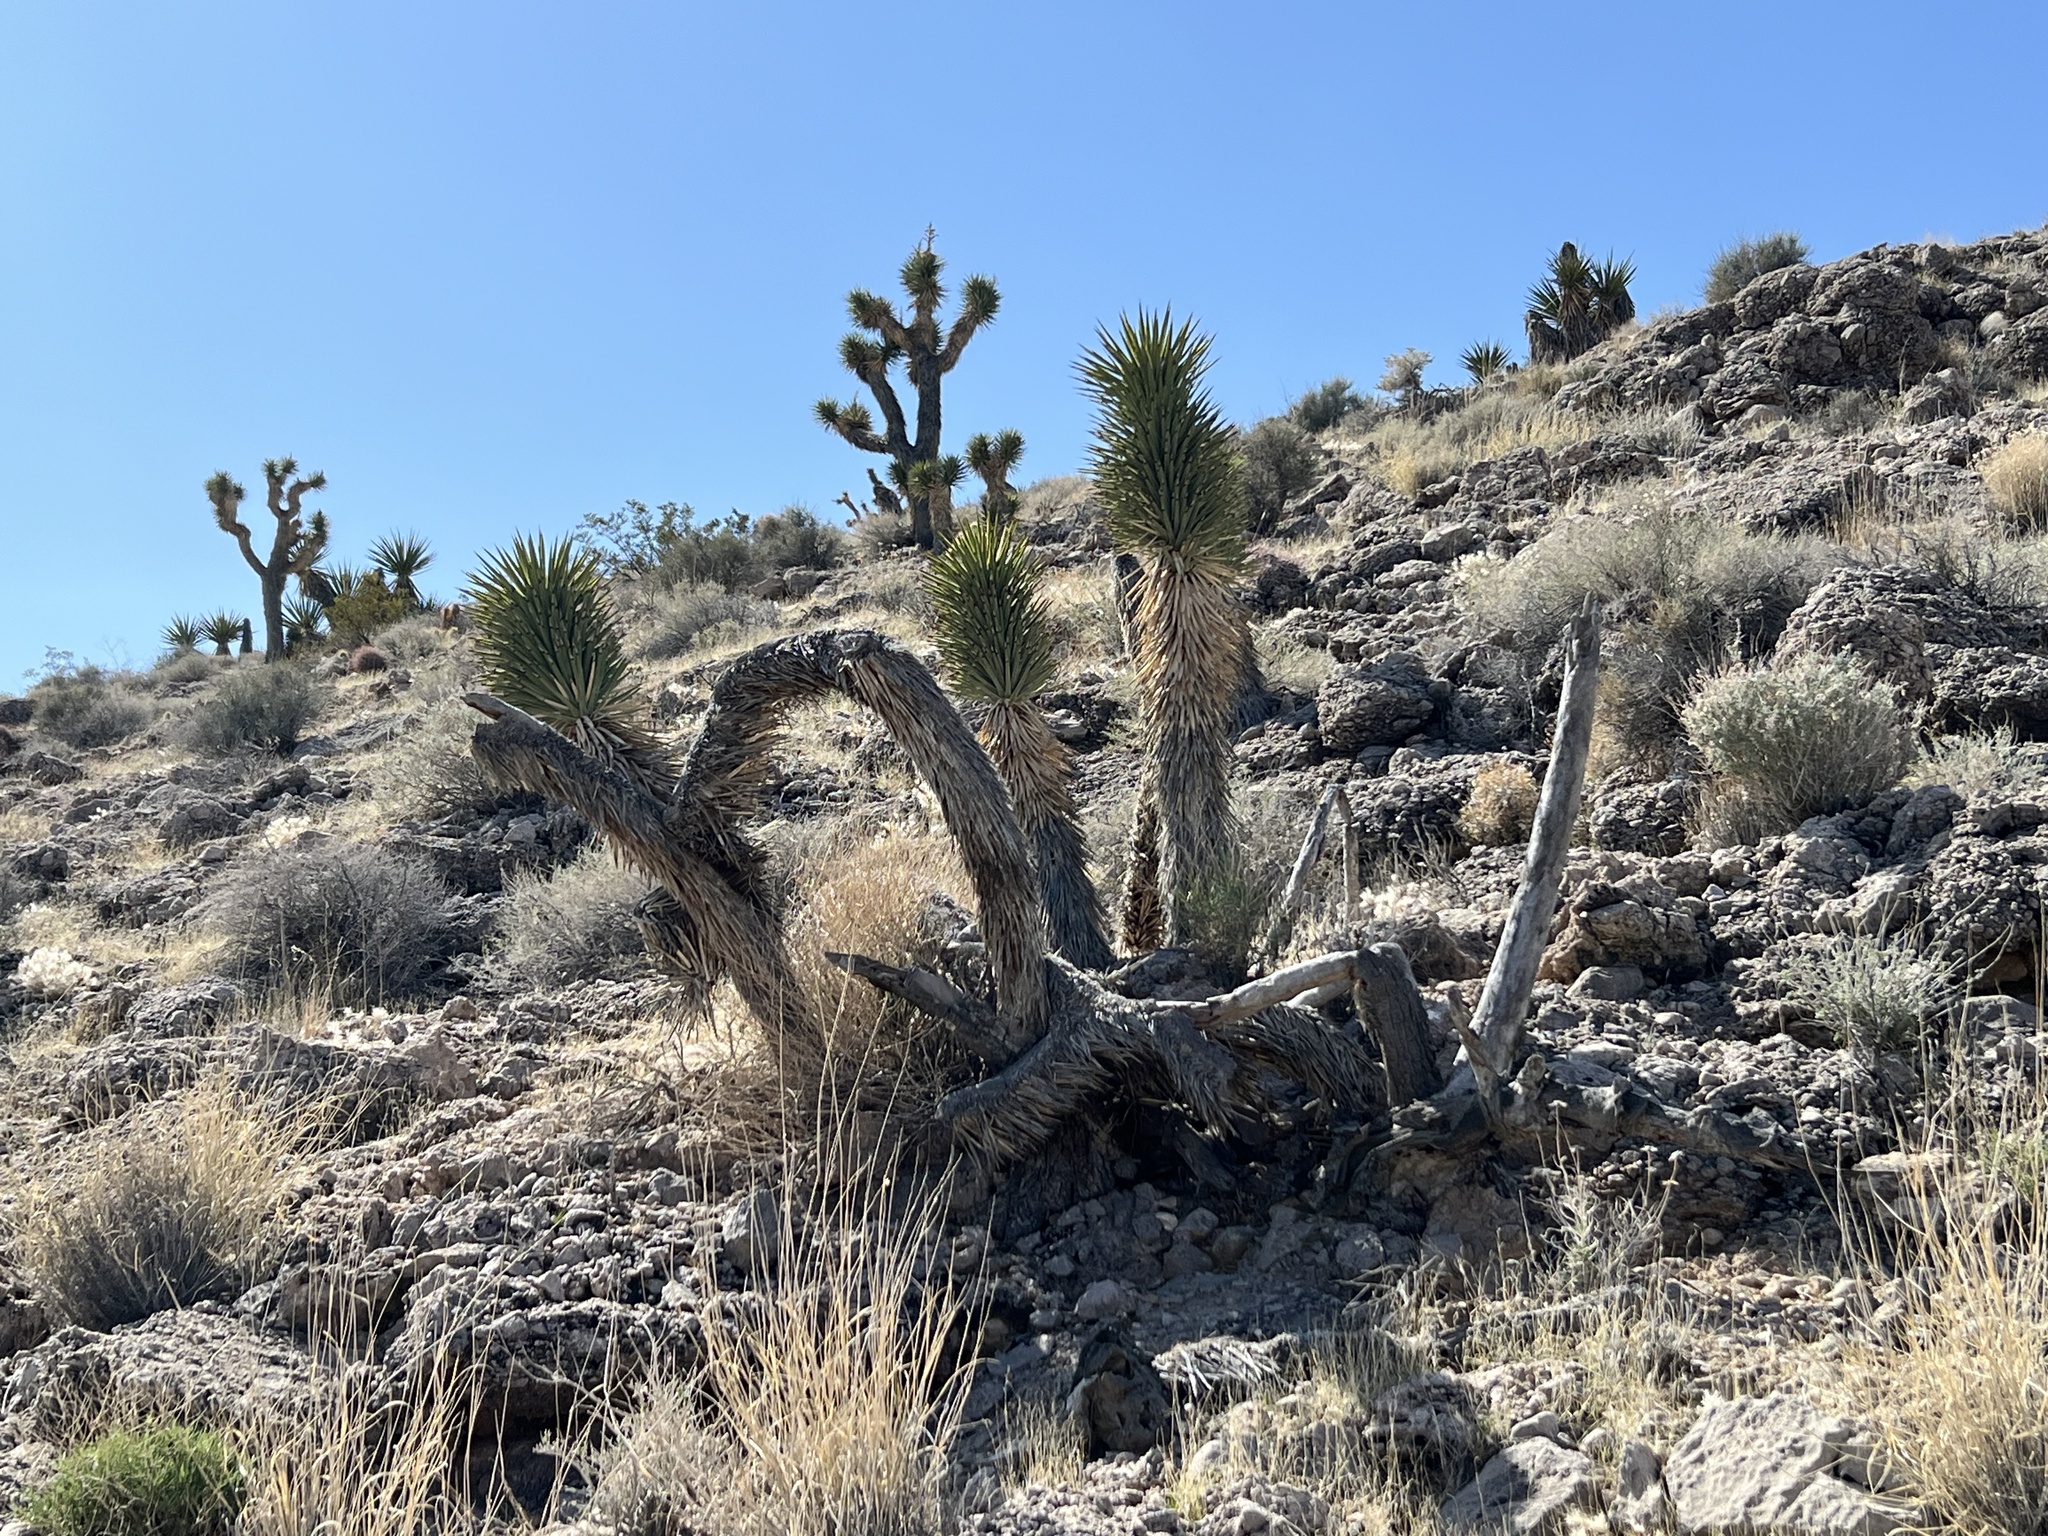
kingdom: Plantae
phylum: Tracheophyta
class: Liliopsida
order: Asparagales
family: Asparagaceae
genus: Yucca
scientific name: Yucca brevifolia
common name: Joshua tree
